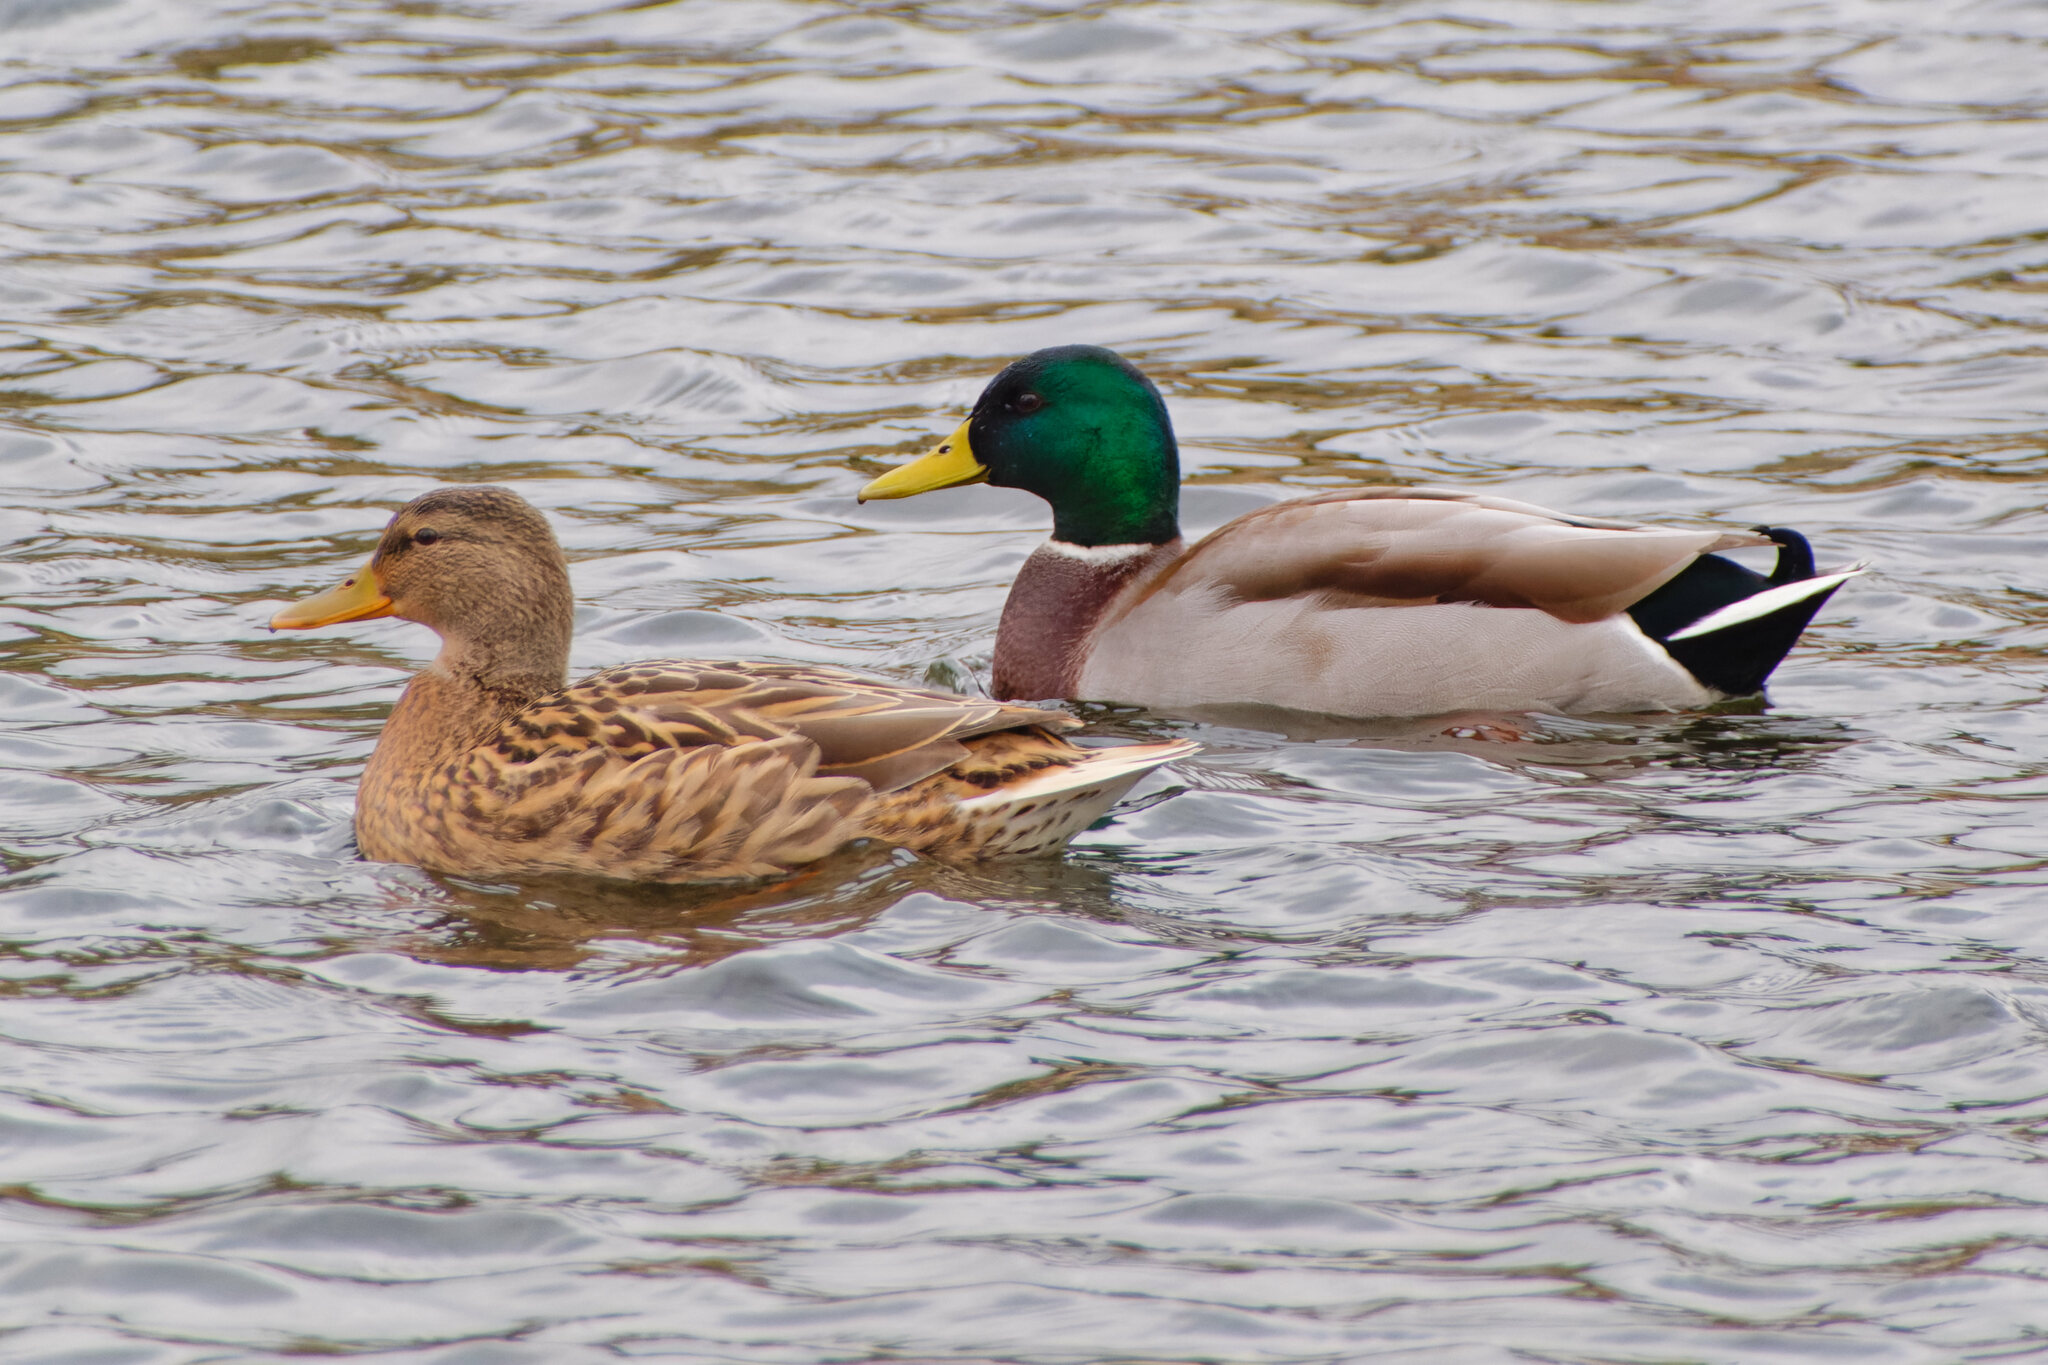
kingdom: Animalia
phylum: Chordata
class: Aves
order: Anseriformes
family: Anatidae
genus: Anas
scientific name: Anas platyrhynchos
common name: Mallard
